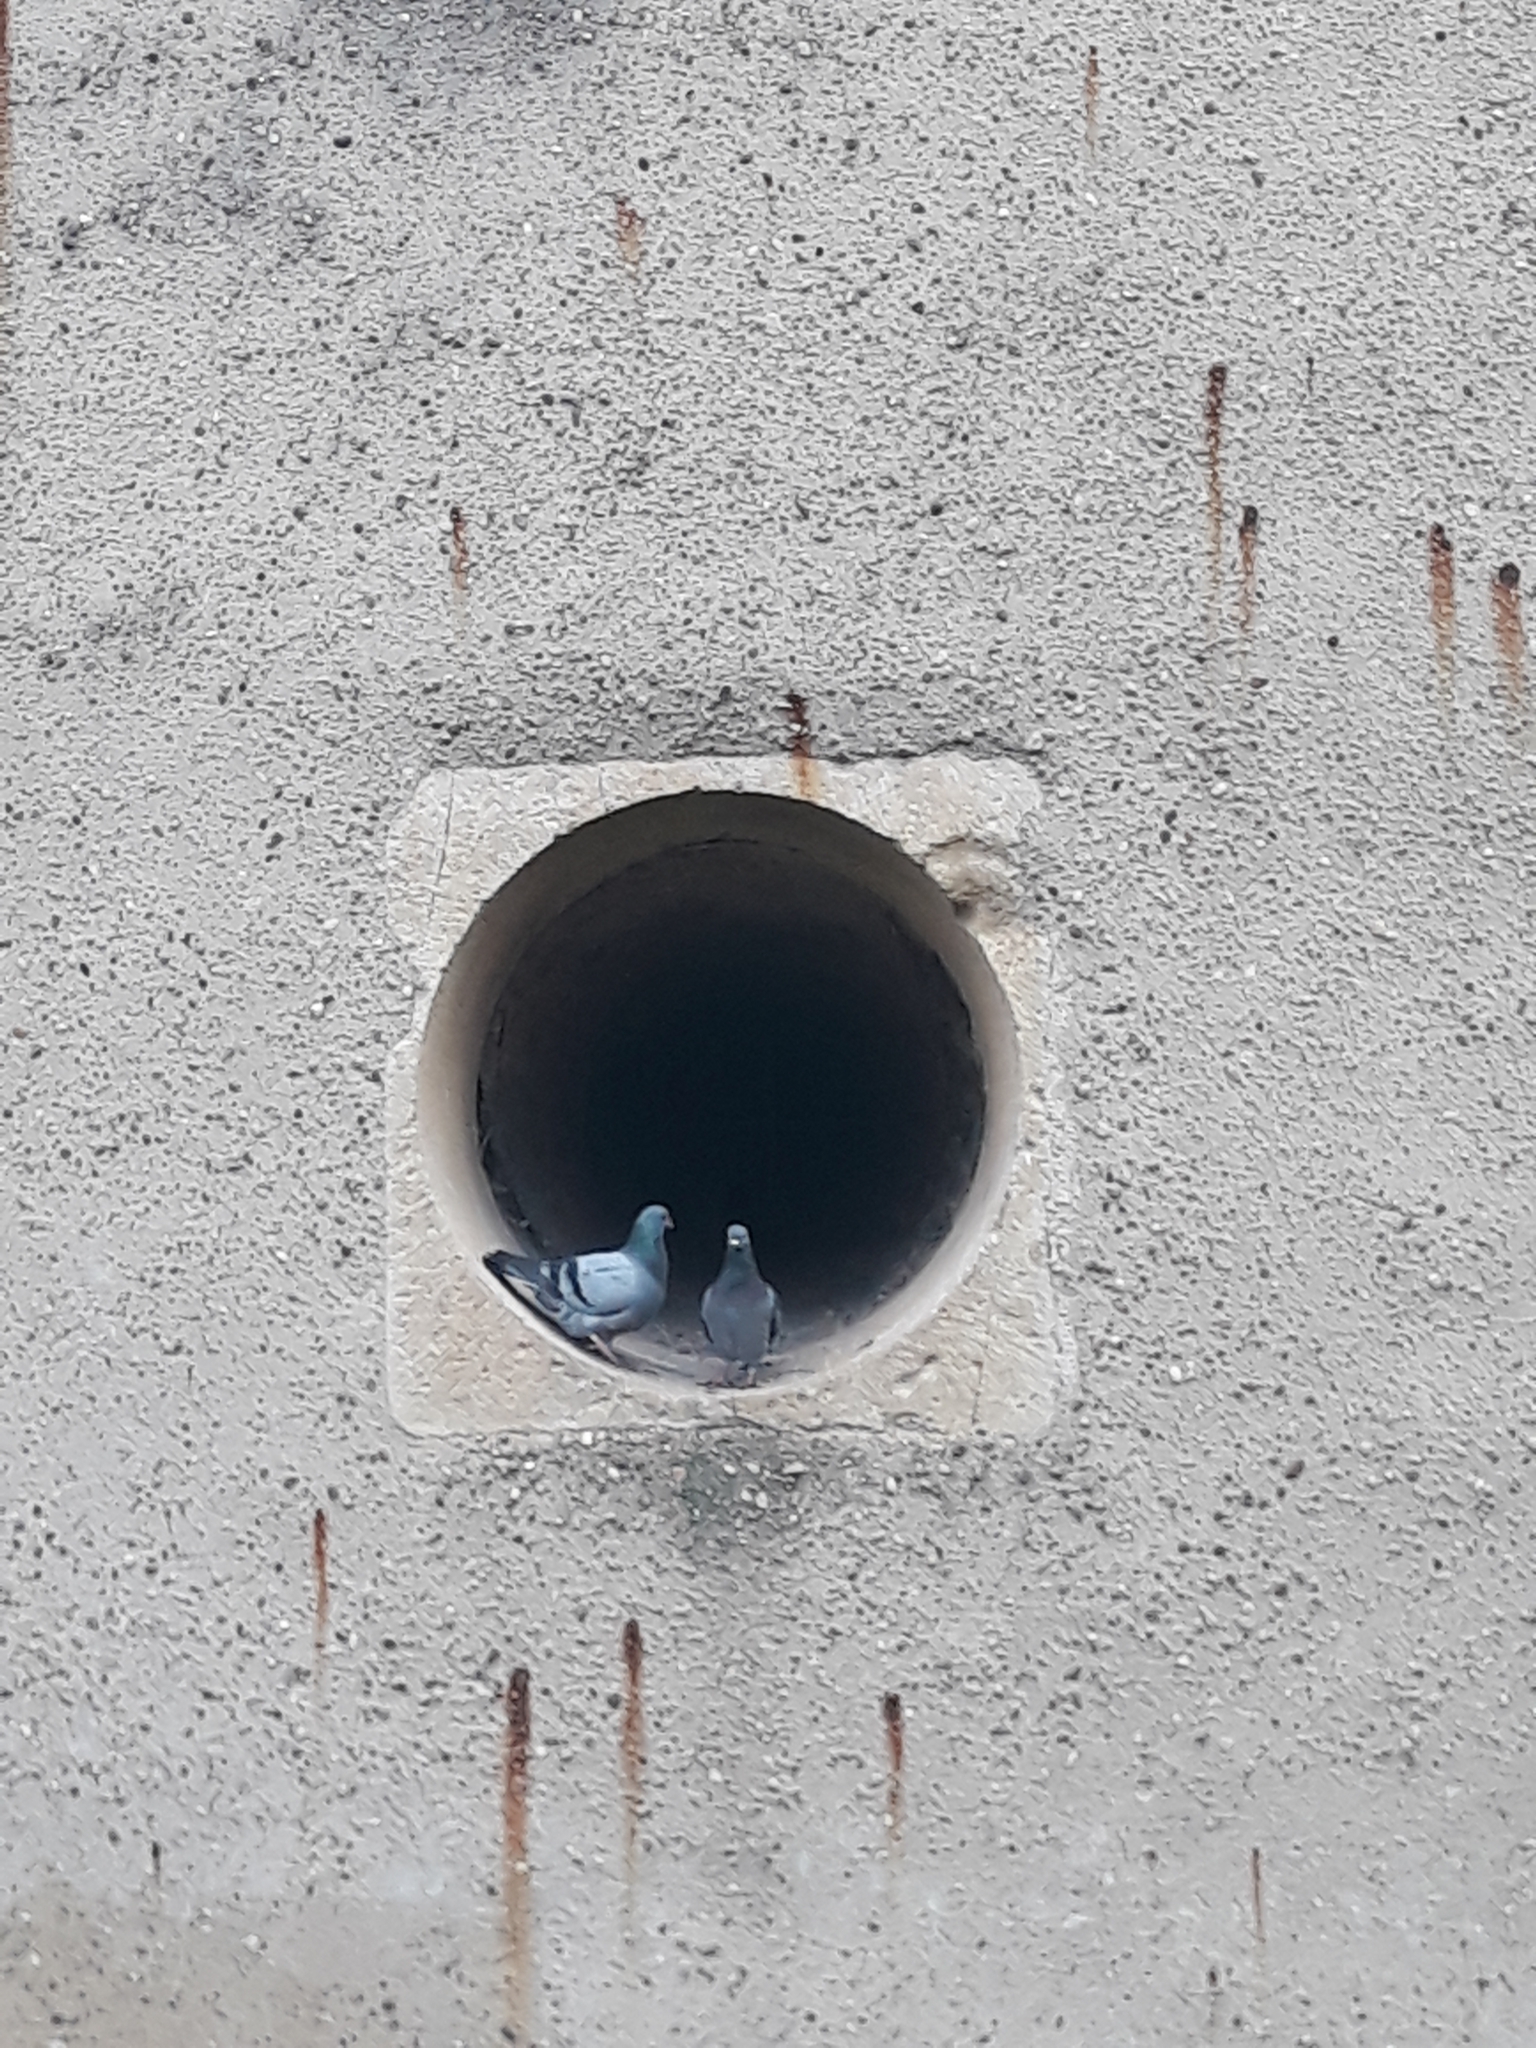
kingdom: Animalia
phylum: Chordata
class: Aves
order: Columbiformes
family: Columbidae
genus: Columba
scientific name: Columba livia
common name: Rock pigeon
